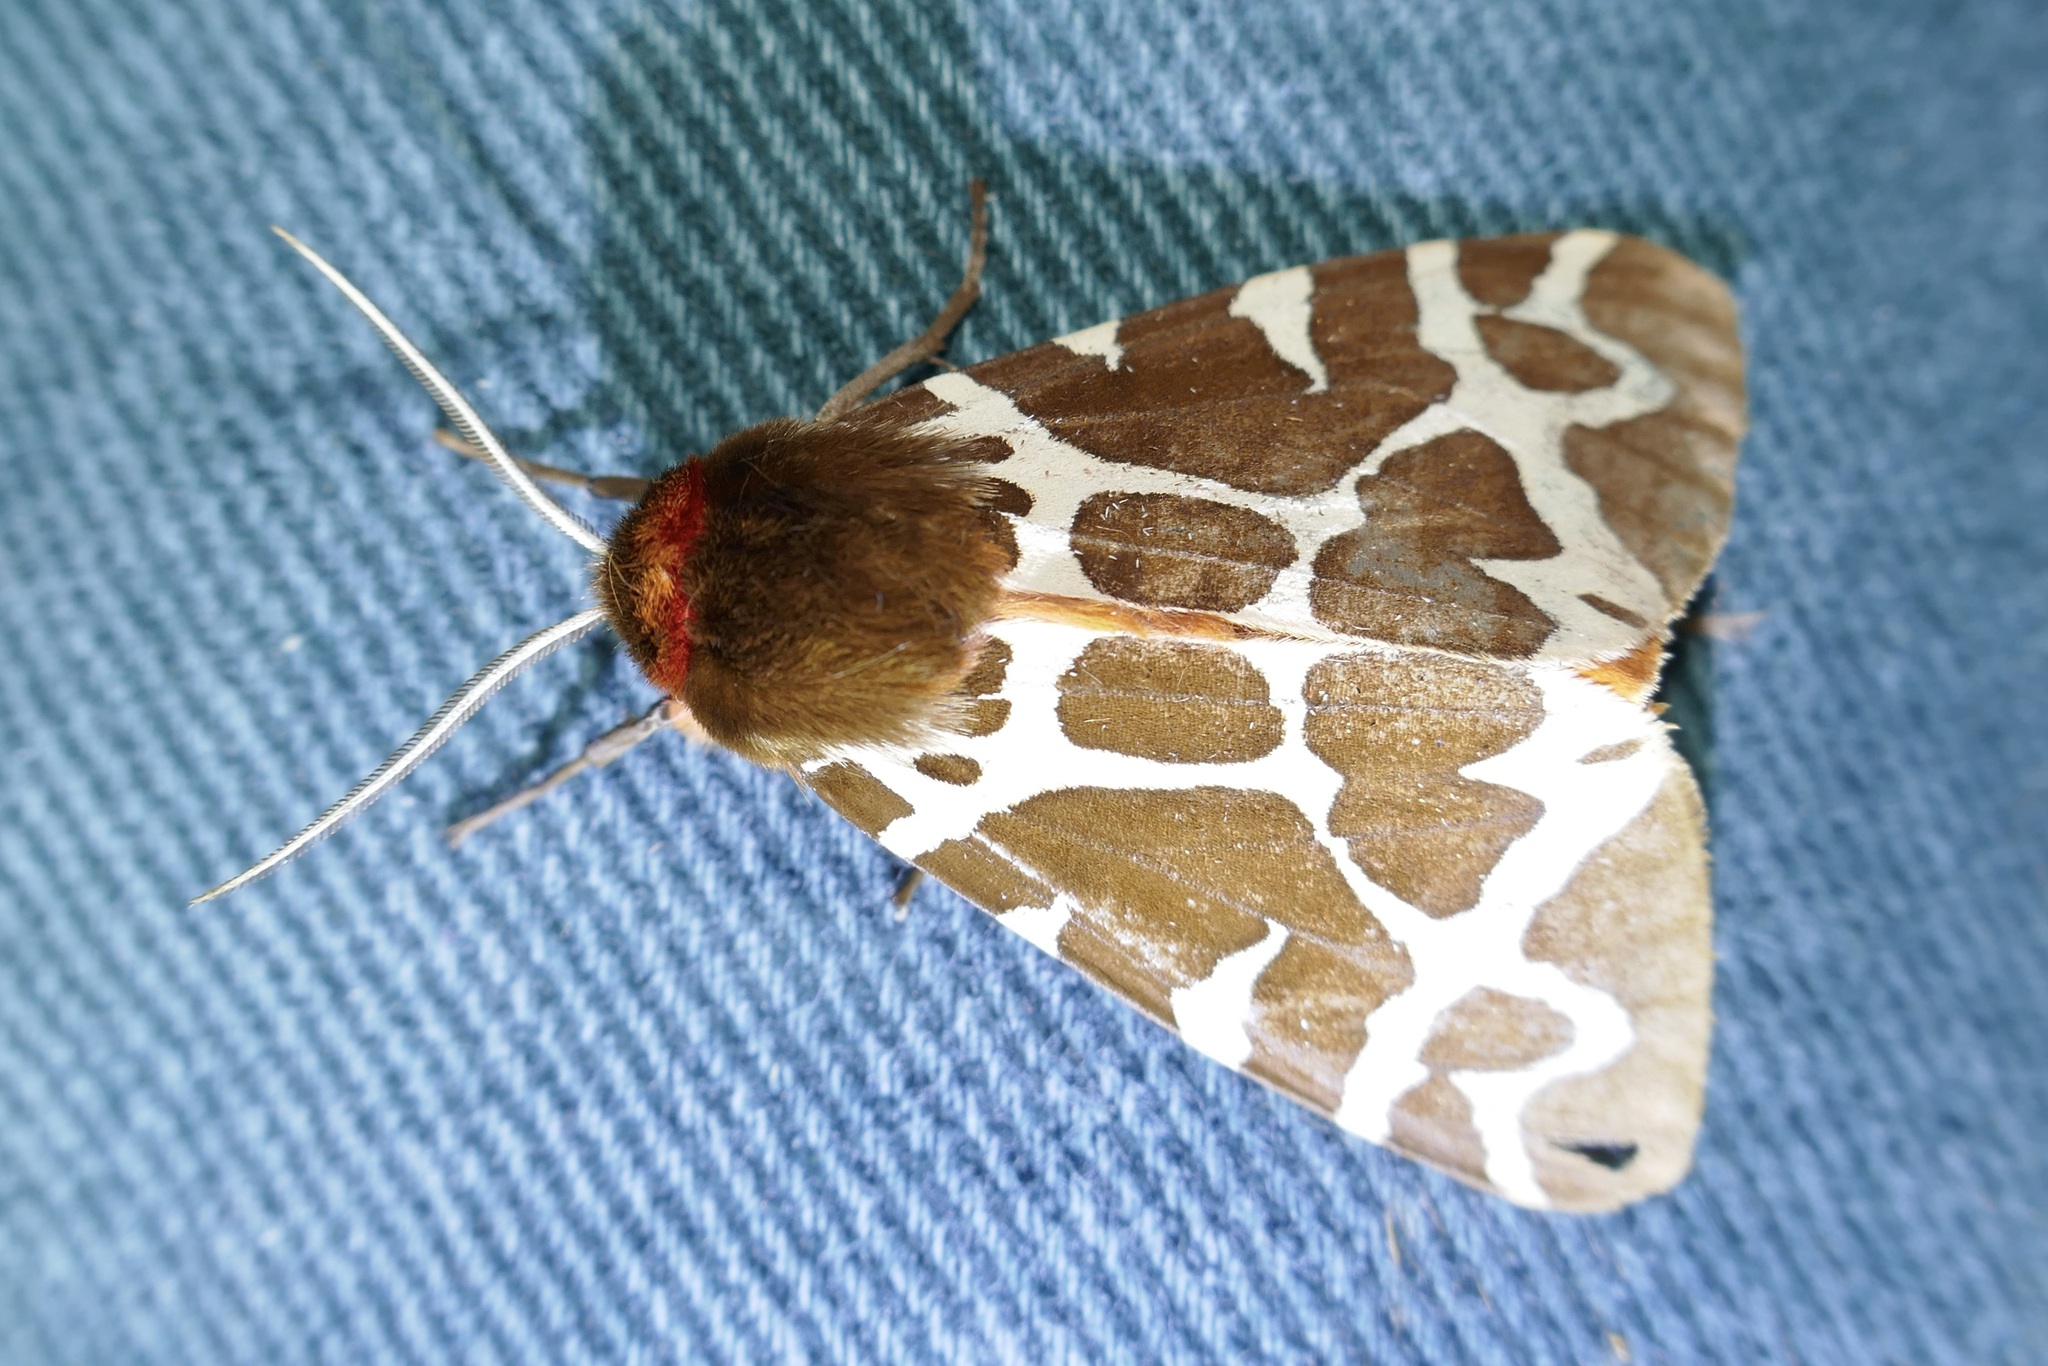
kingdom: Animalia
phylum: Arthropoda
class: Insecta
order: Lepidoptera
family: Erebidae
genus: Arctia
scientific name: Arctia caja
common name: Garden tiger
